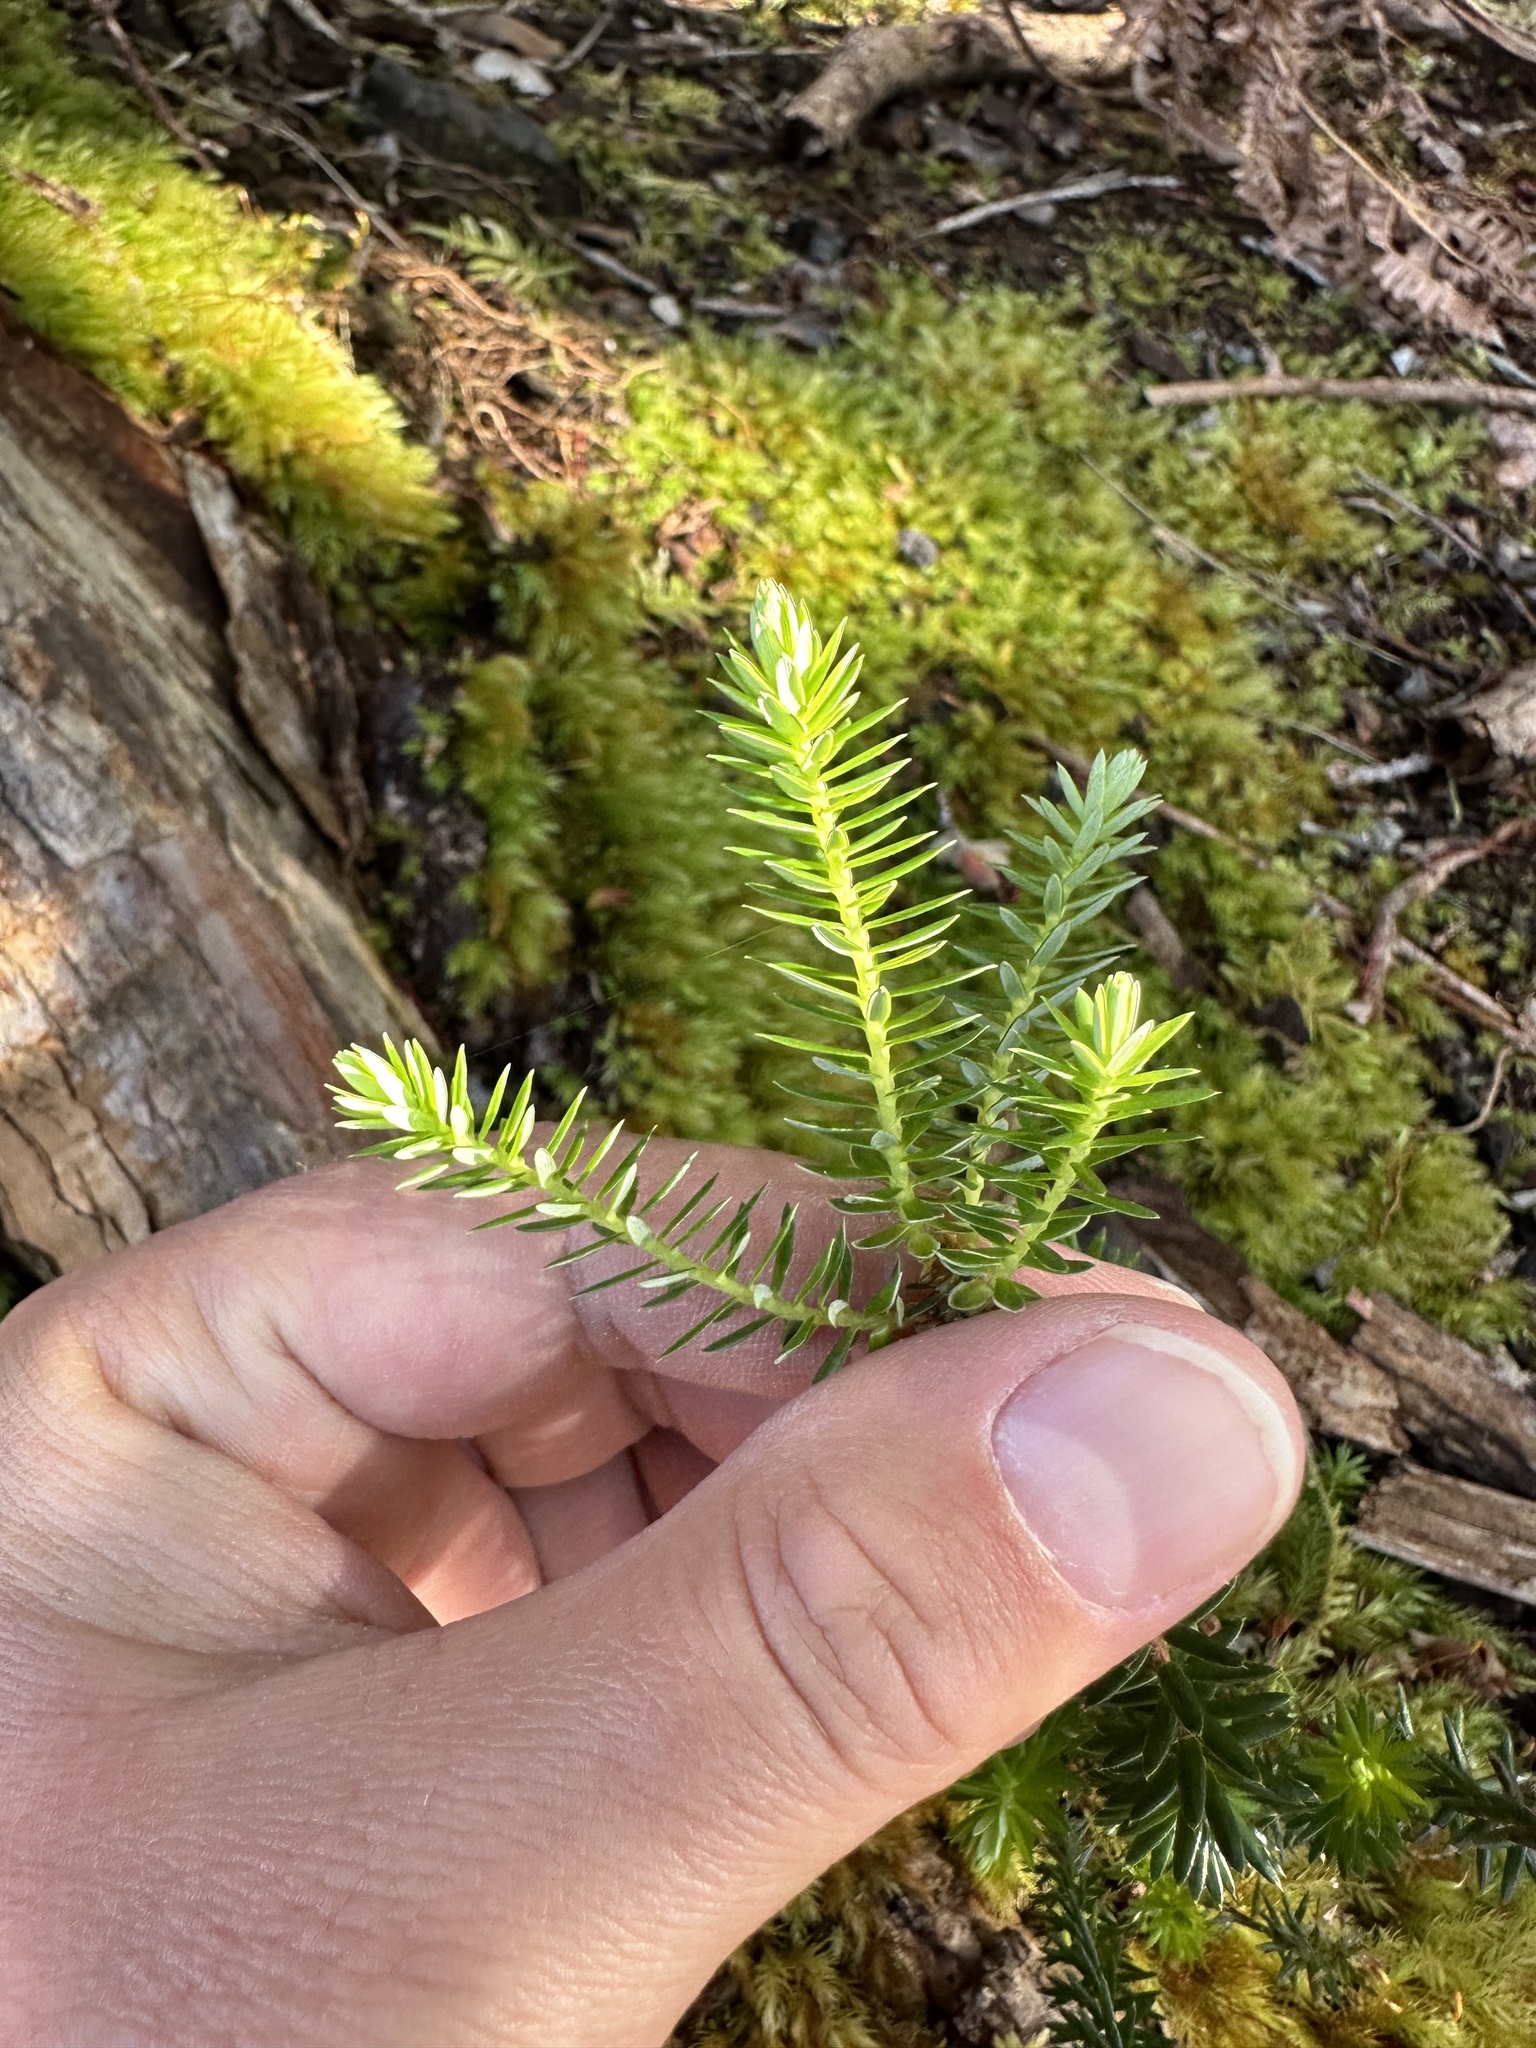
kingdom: Plantae
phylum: Tracheophyta
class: Magnoliopsida
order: Ericales
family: Ericaceae
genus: Leptecophylla
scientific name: Leptecophylla tameiameiae
